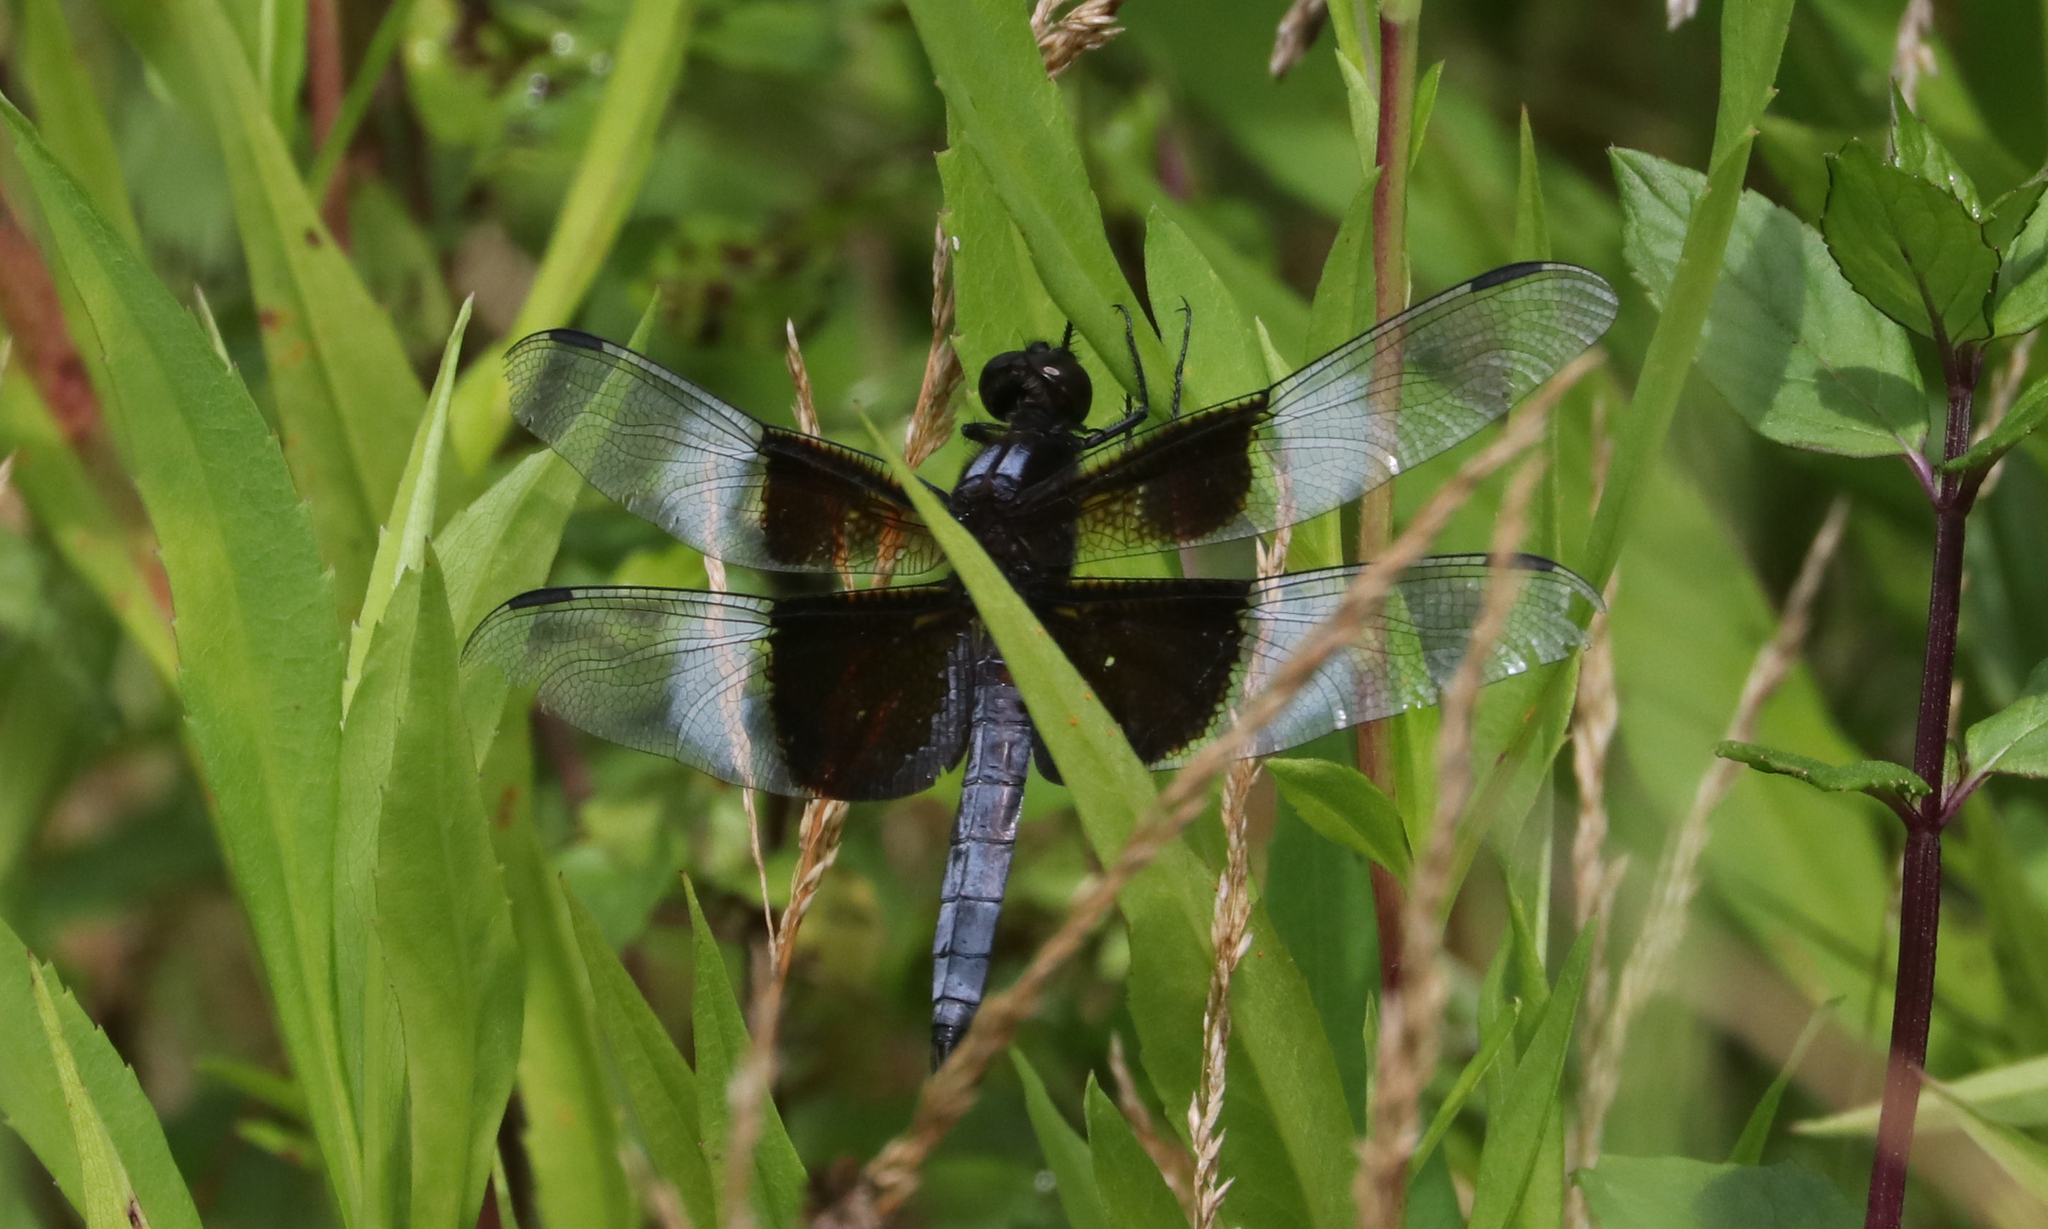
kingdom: Animalia
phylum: Arthropoda
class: Insecta
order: Odonata
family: Libellulidae
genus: Libellula
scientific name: Libellula luctuosa
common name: Widow skimmer
